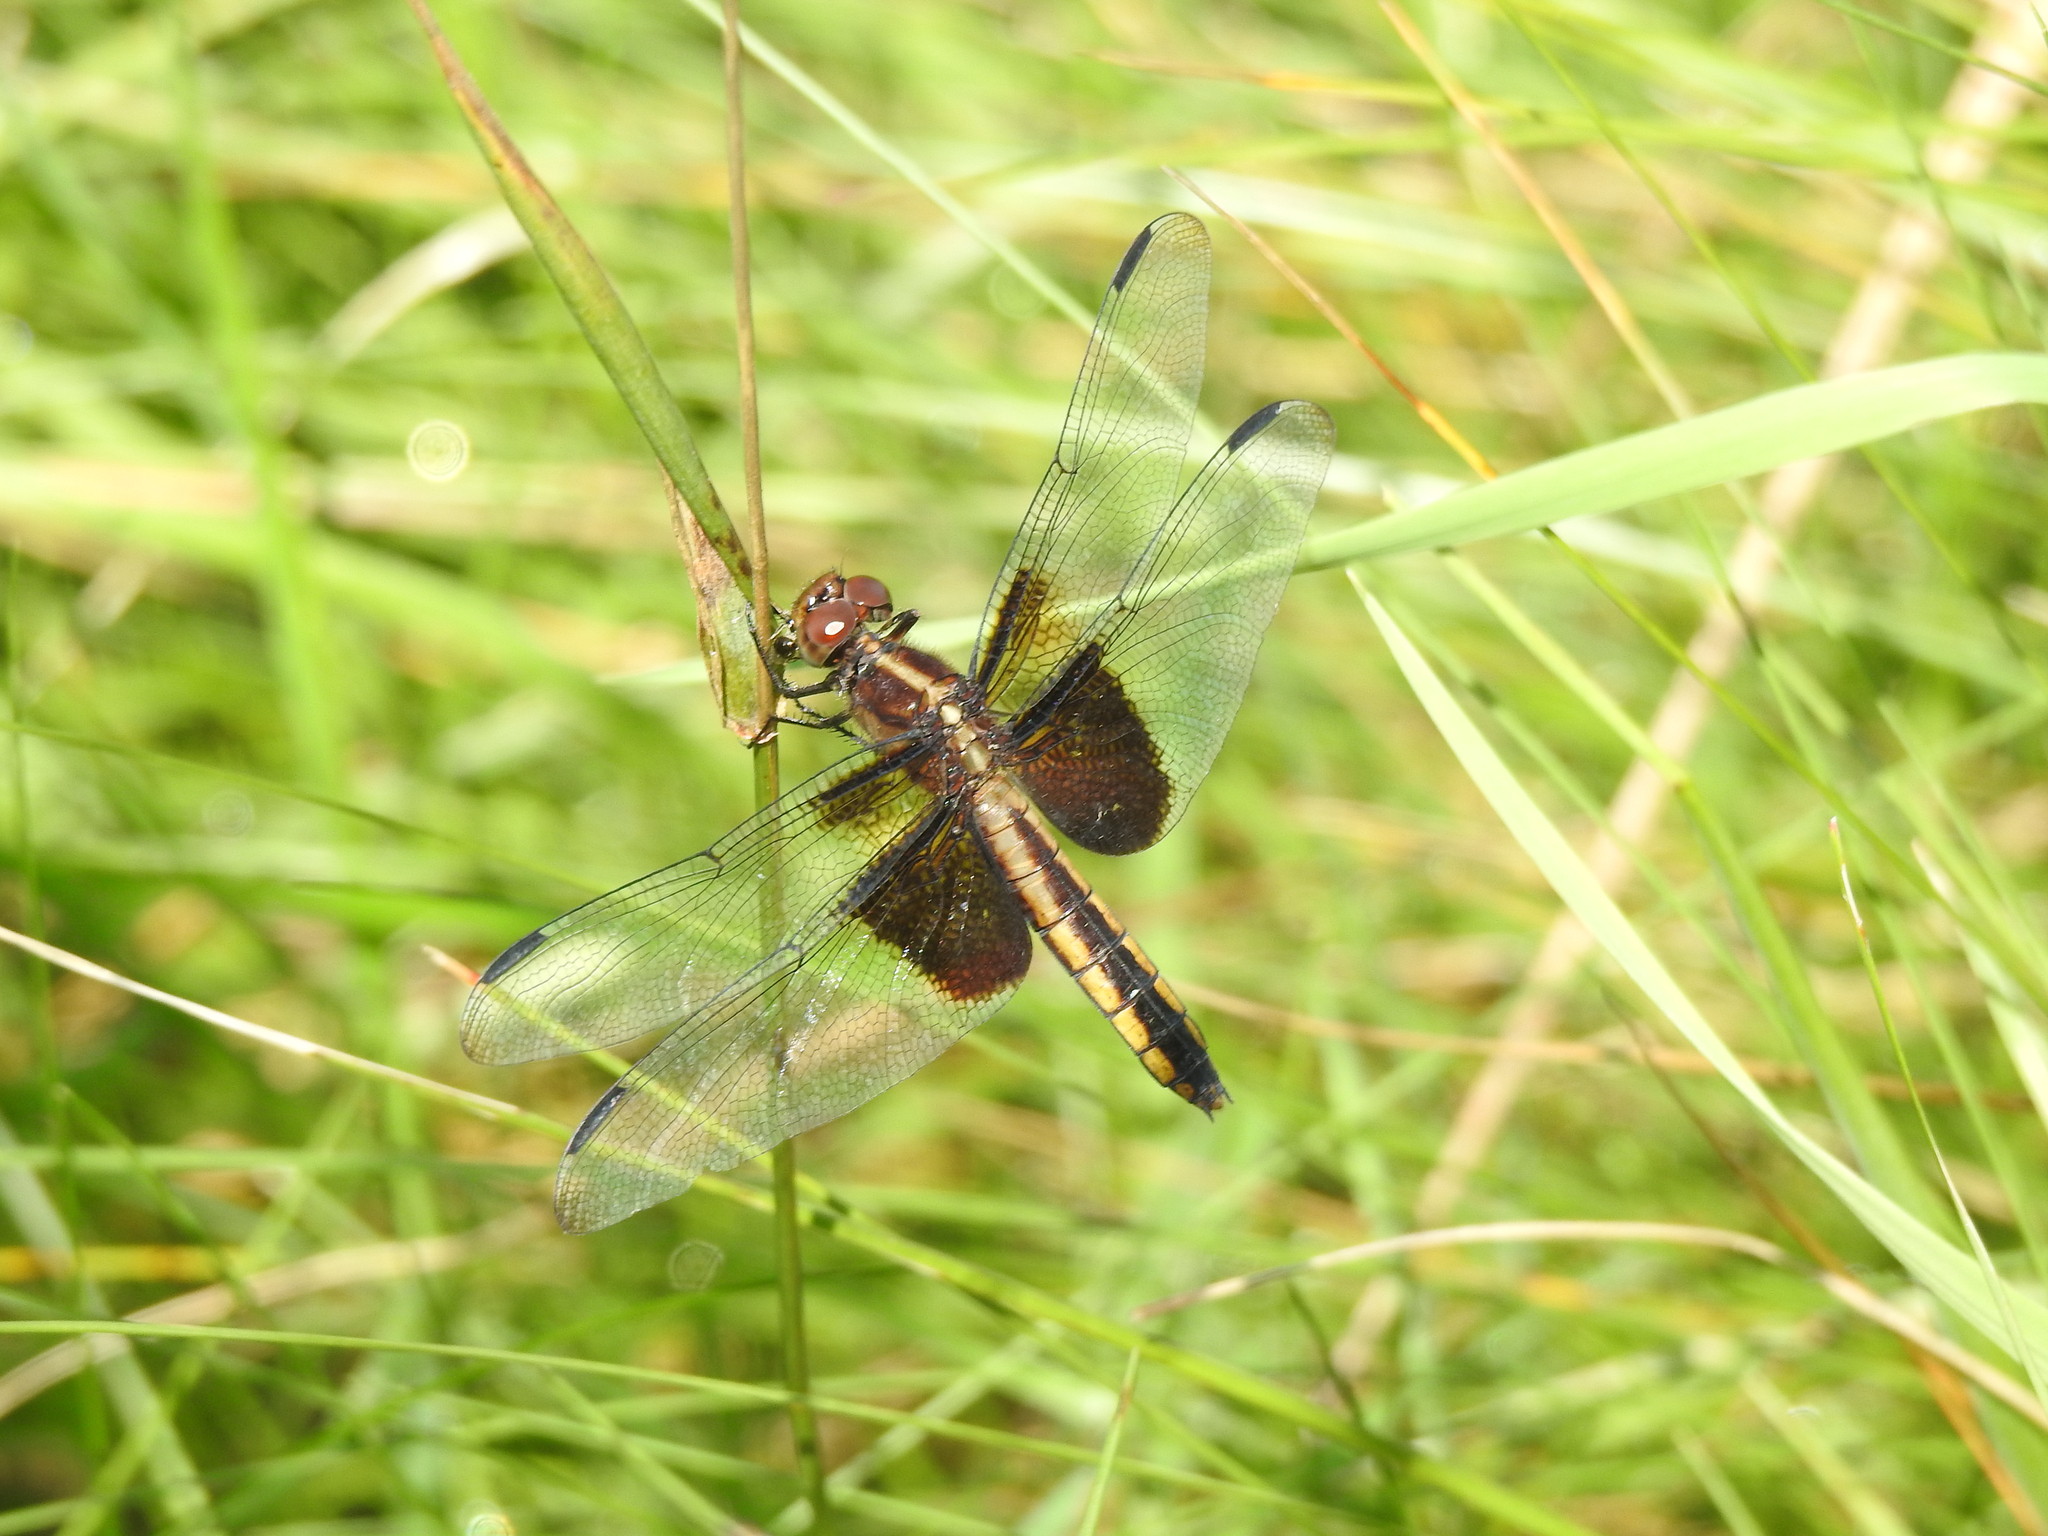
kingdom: Animalia
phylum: Arthropoda
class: Insecta
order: Odonata
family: Libellulidae
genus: Libellula
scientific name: Libellula luctuosa
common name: Widow skimmer
